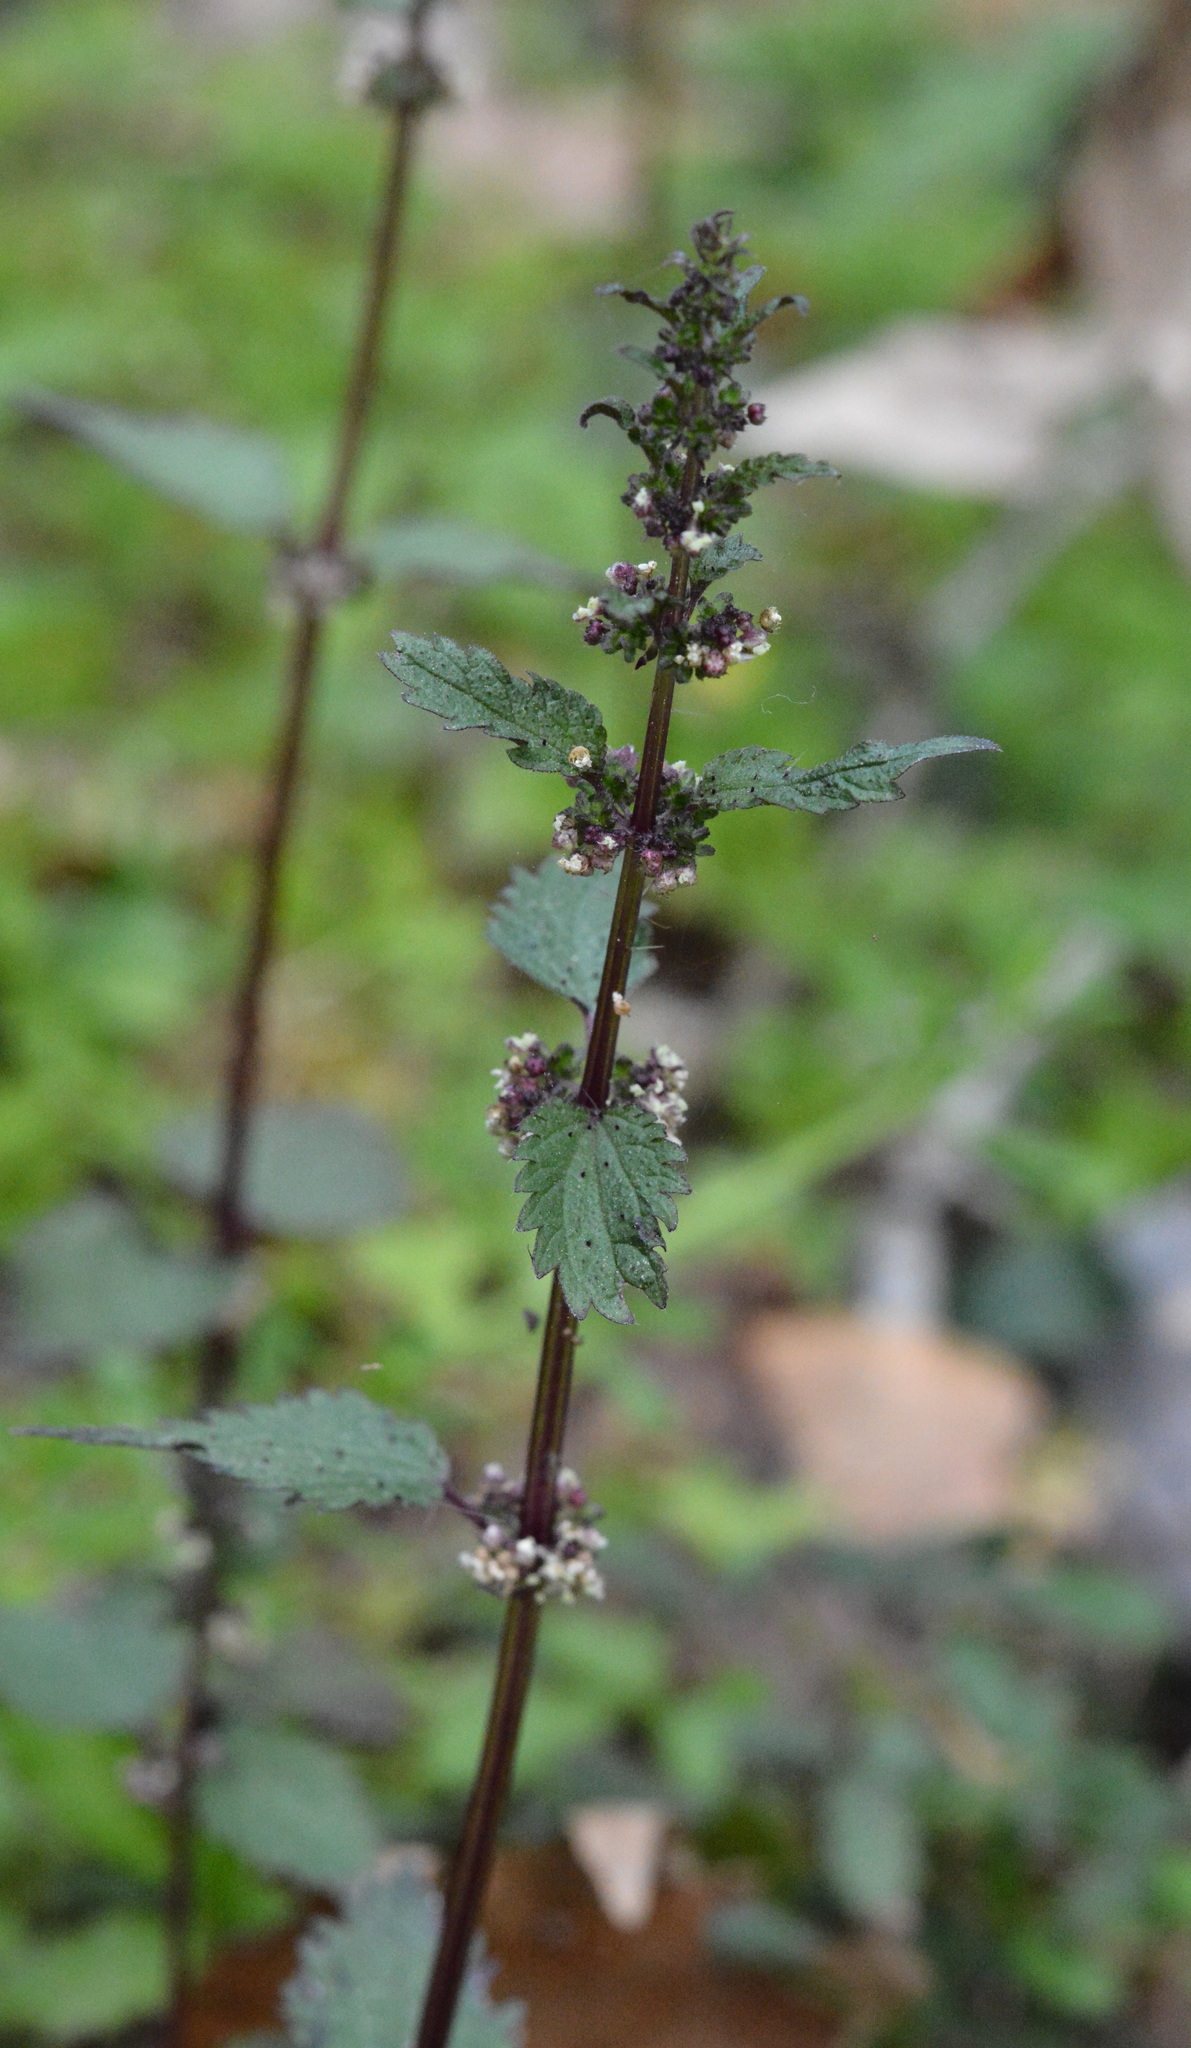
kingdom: Plantae
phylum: Tracheophyta
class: Magnoliopsida
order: Rosales
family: Urticaceae
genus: Urtica
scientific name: Urtica chamaedryoides
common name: Heart-leaf nettle
